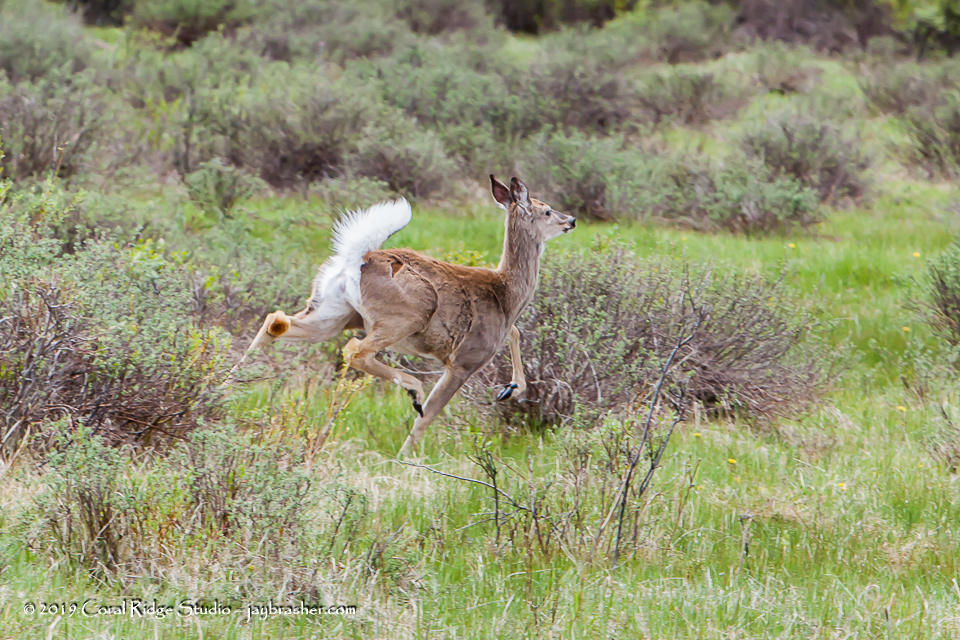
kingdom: Animalia
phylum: Chordata
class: Mammalia
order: Artiodactyla
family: Cervidae
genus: Odocoileus
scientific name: Odocoileus virginianus
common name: White-tailed deer
